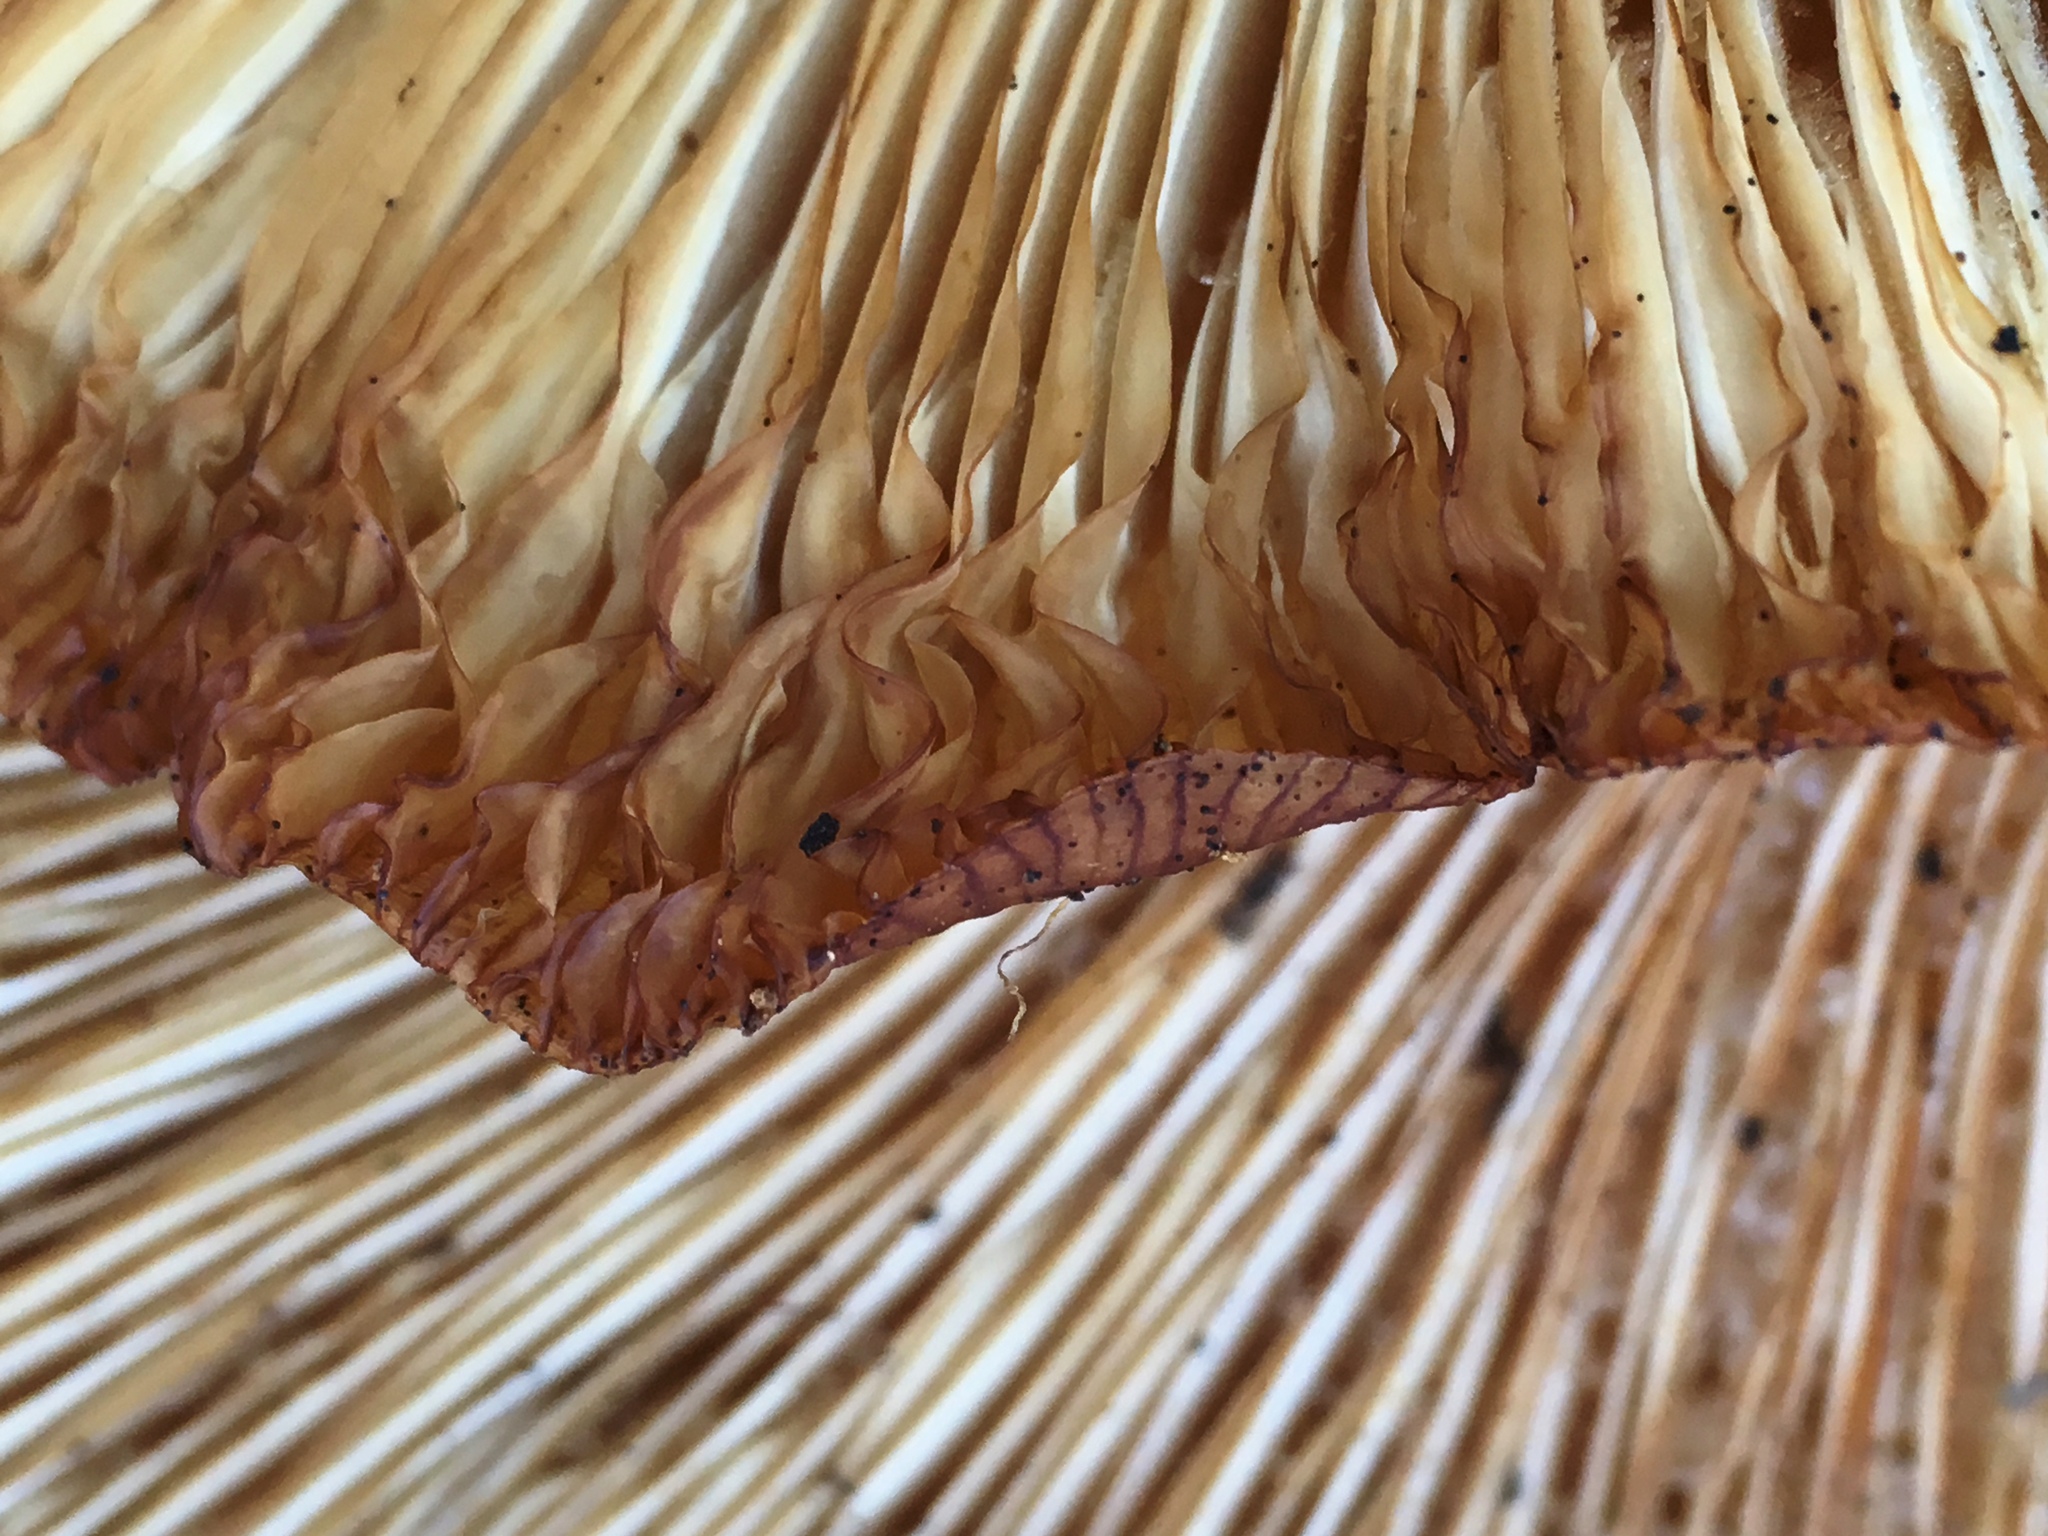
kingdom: Fungi
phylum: Basidiomycota
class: Agaricomycetes
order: Agaricales
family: Pleurotaceae
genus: Pleurotus
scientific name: Pleurotus ostreatus
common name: Oyster mushroom
